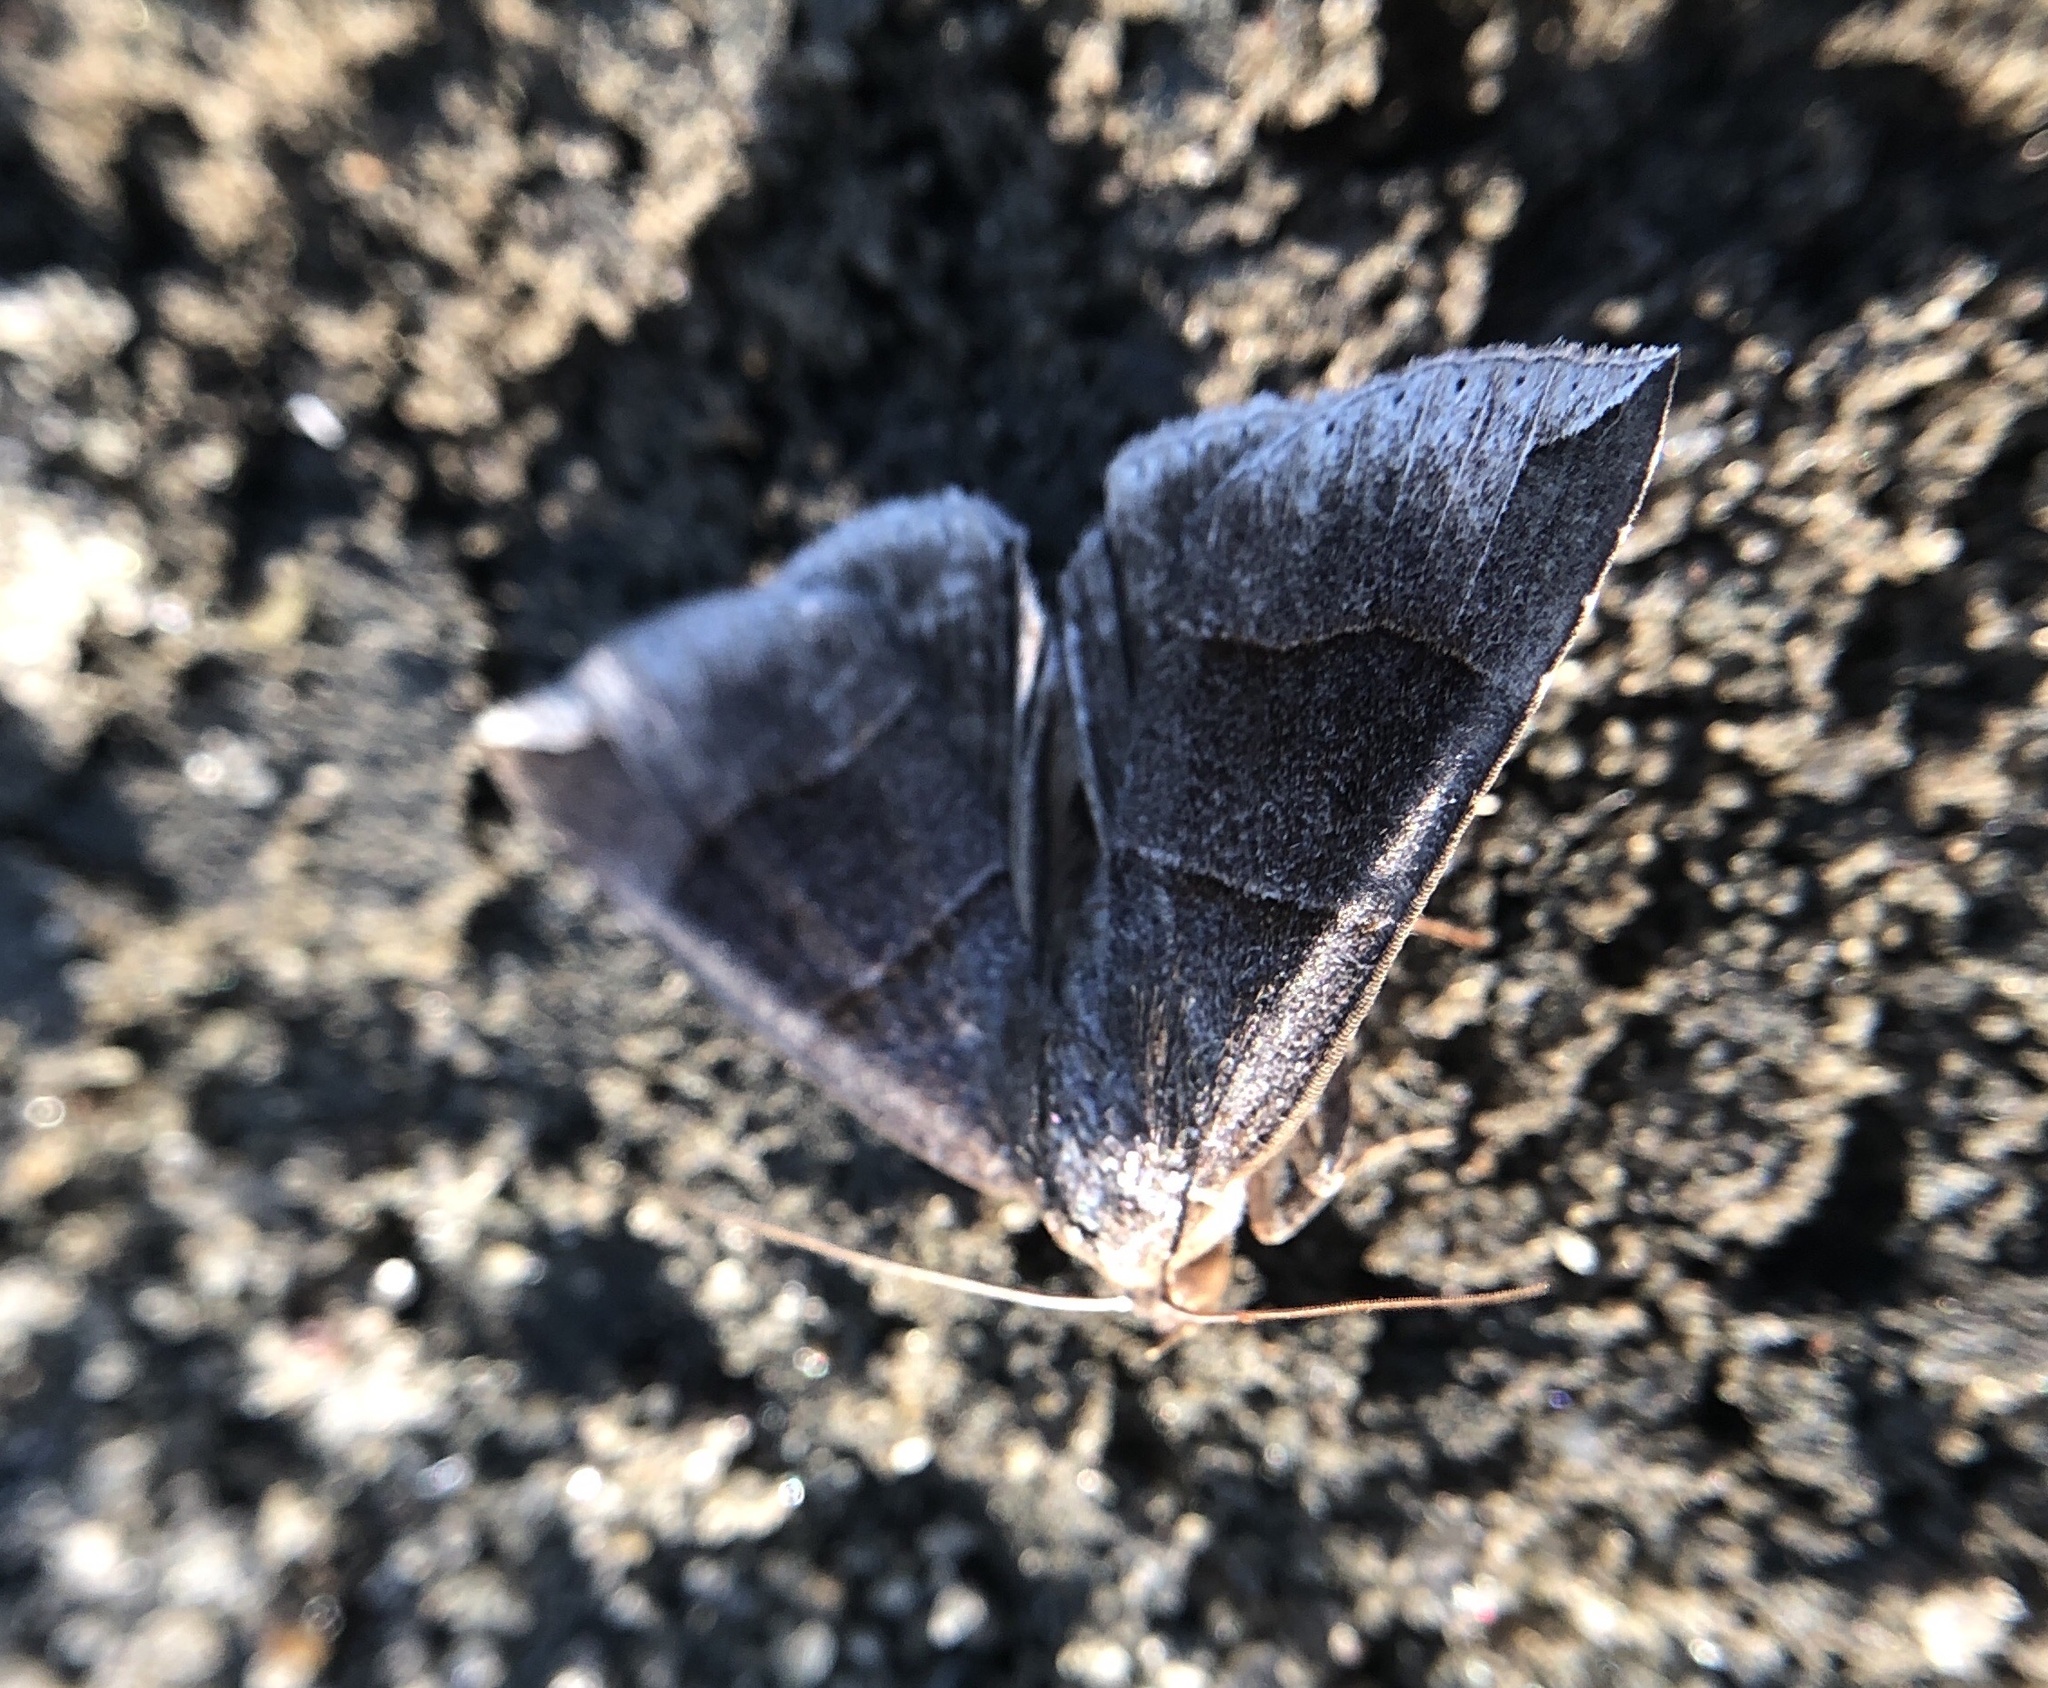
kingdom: Animalia
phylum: Arthropoda
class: Insecta
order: Lepidoptera
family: Erebidae
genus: Parallelia
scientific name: Parallelia bistriaris
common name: Maple looper moth
